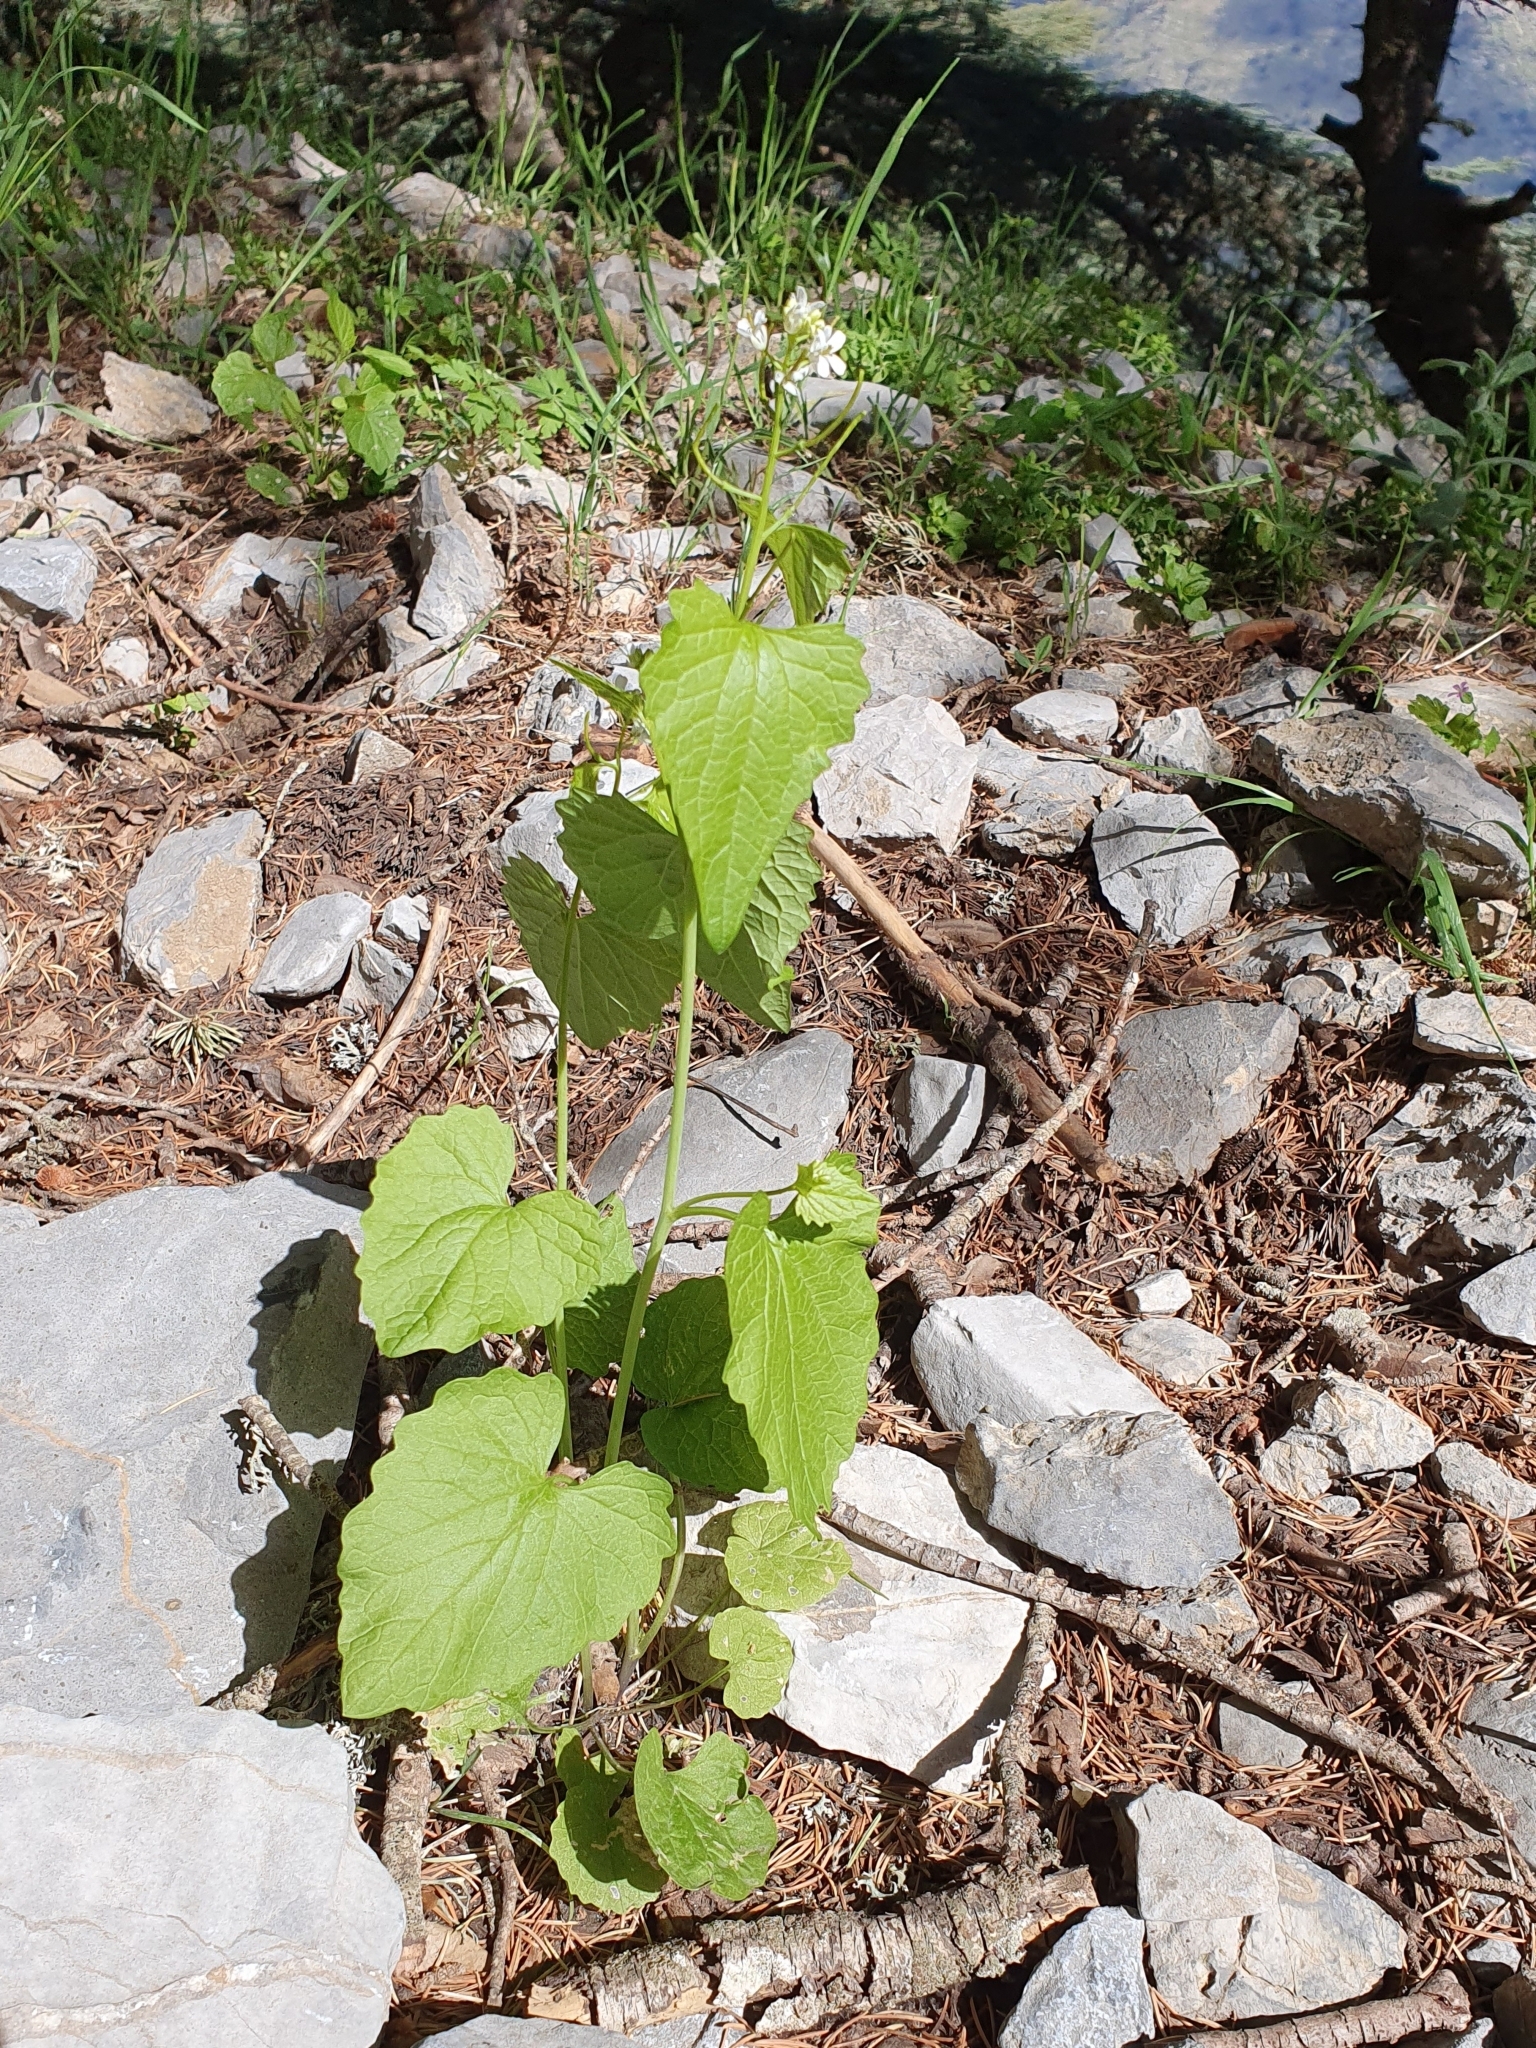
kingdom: Plantae
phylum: Tracheophyta
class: Magnoliopsida
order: Brassicales
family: Brassicaceae
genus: Alliaria
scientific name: Alliaria petiolata
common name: Garlic mustard
